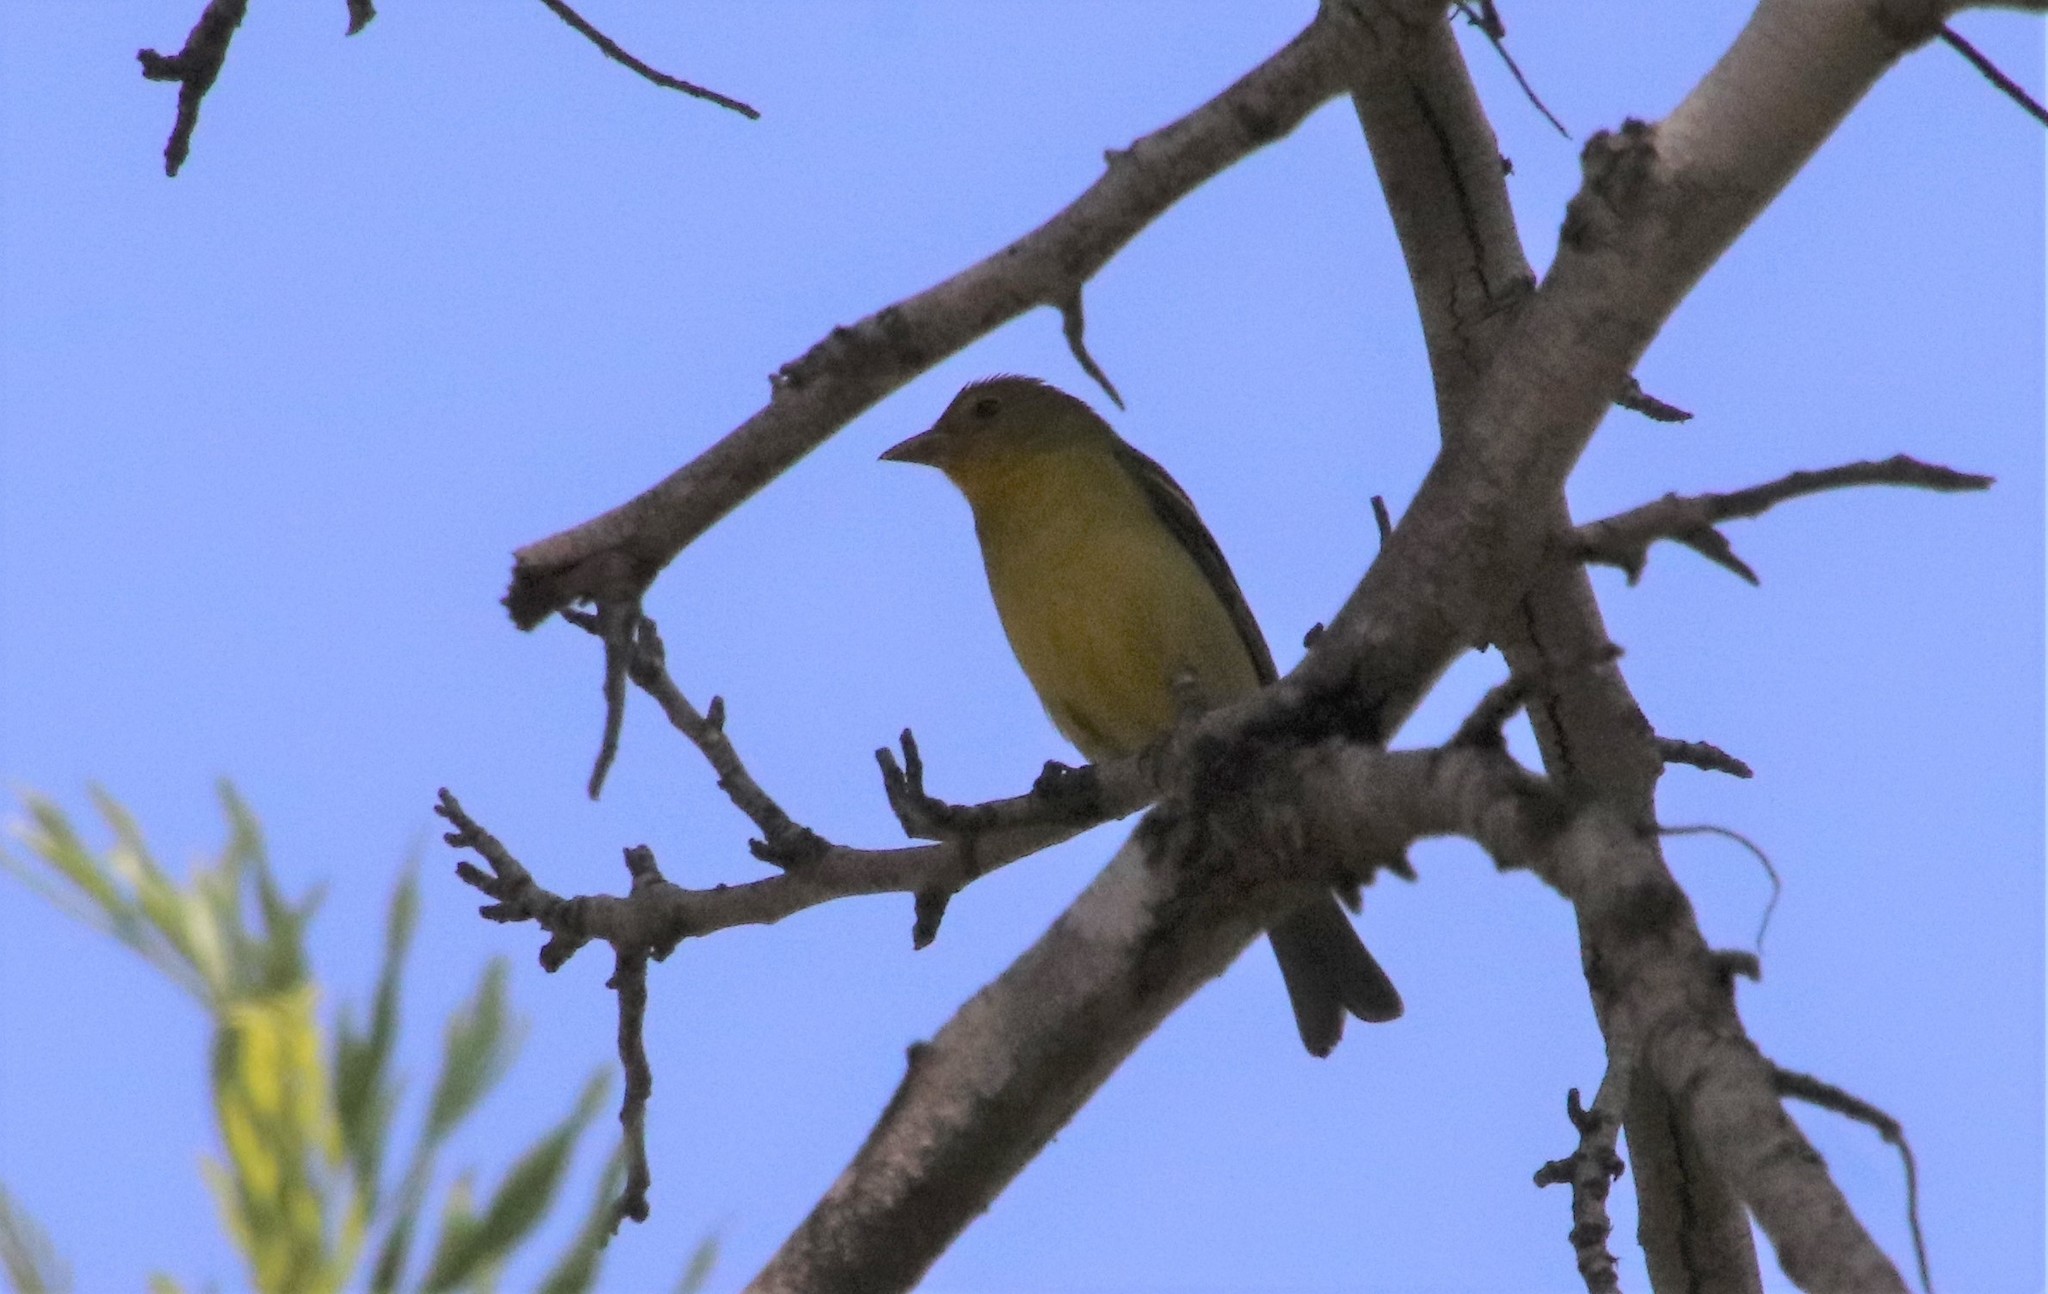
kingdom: Animalia
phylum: Chordata
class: Aves
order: Passeriformes
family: Cardinalidae
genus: Piranga
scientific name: Piranga ludoviciana
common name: Western tanager
